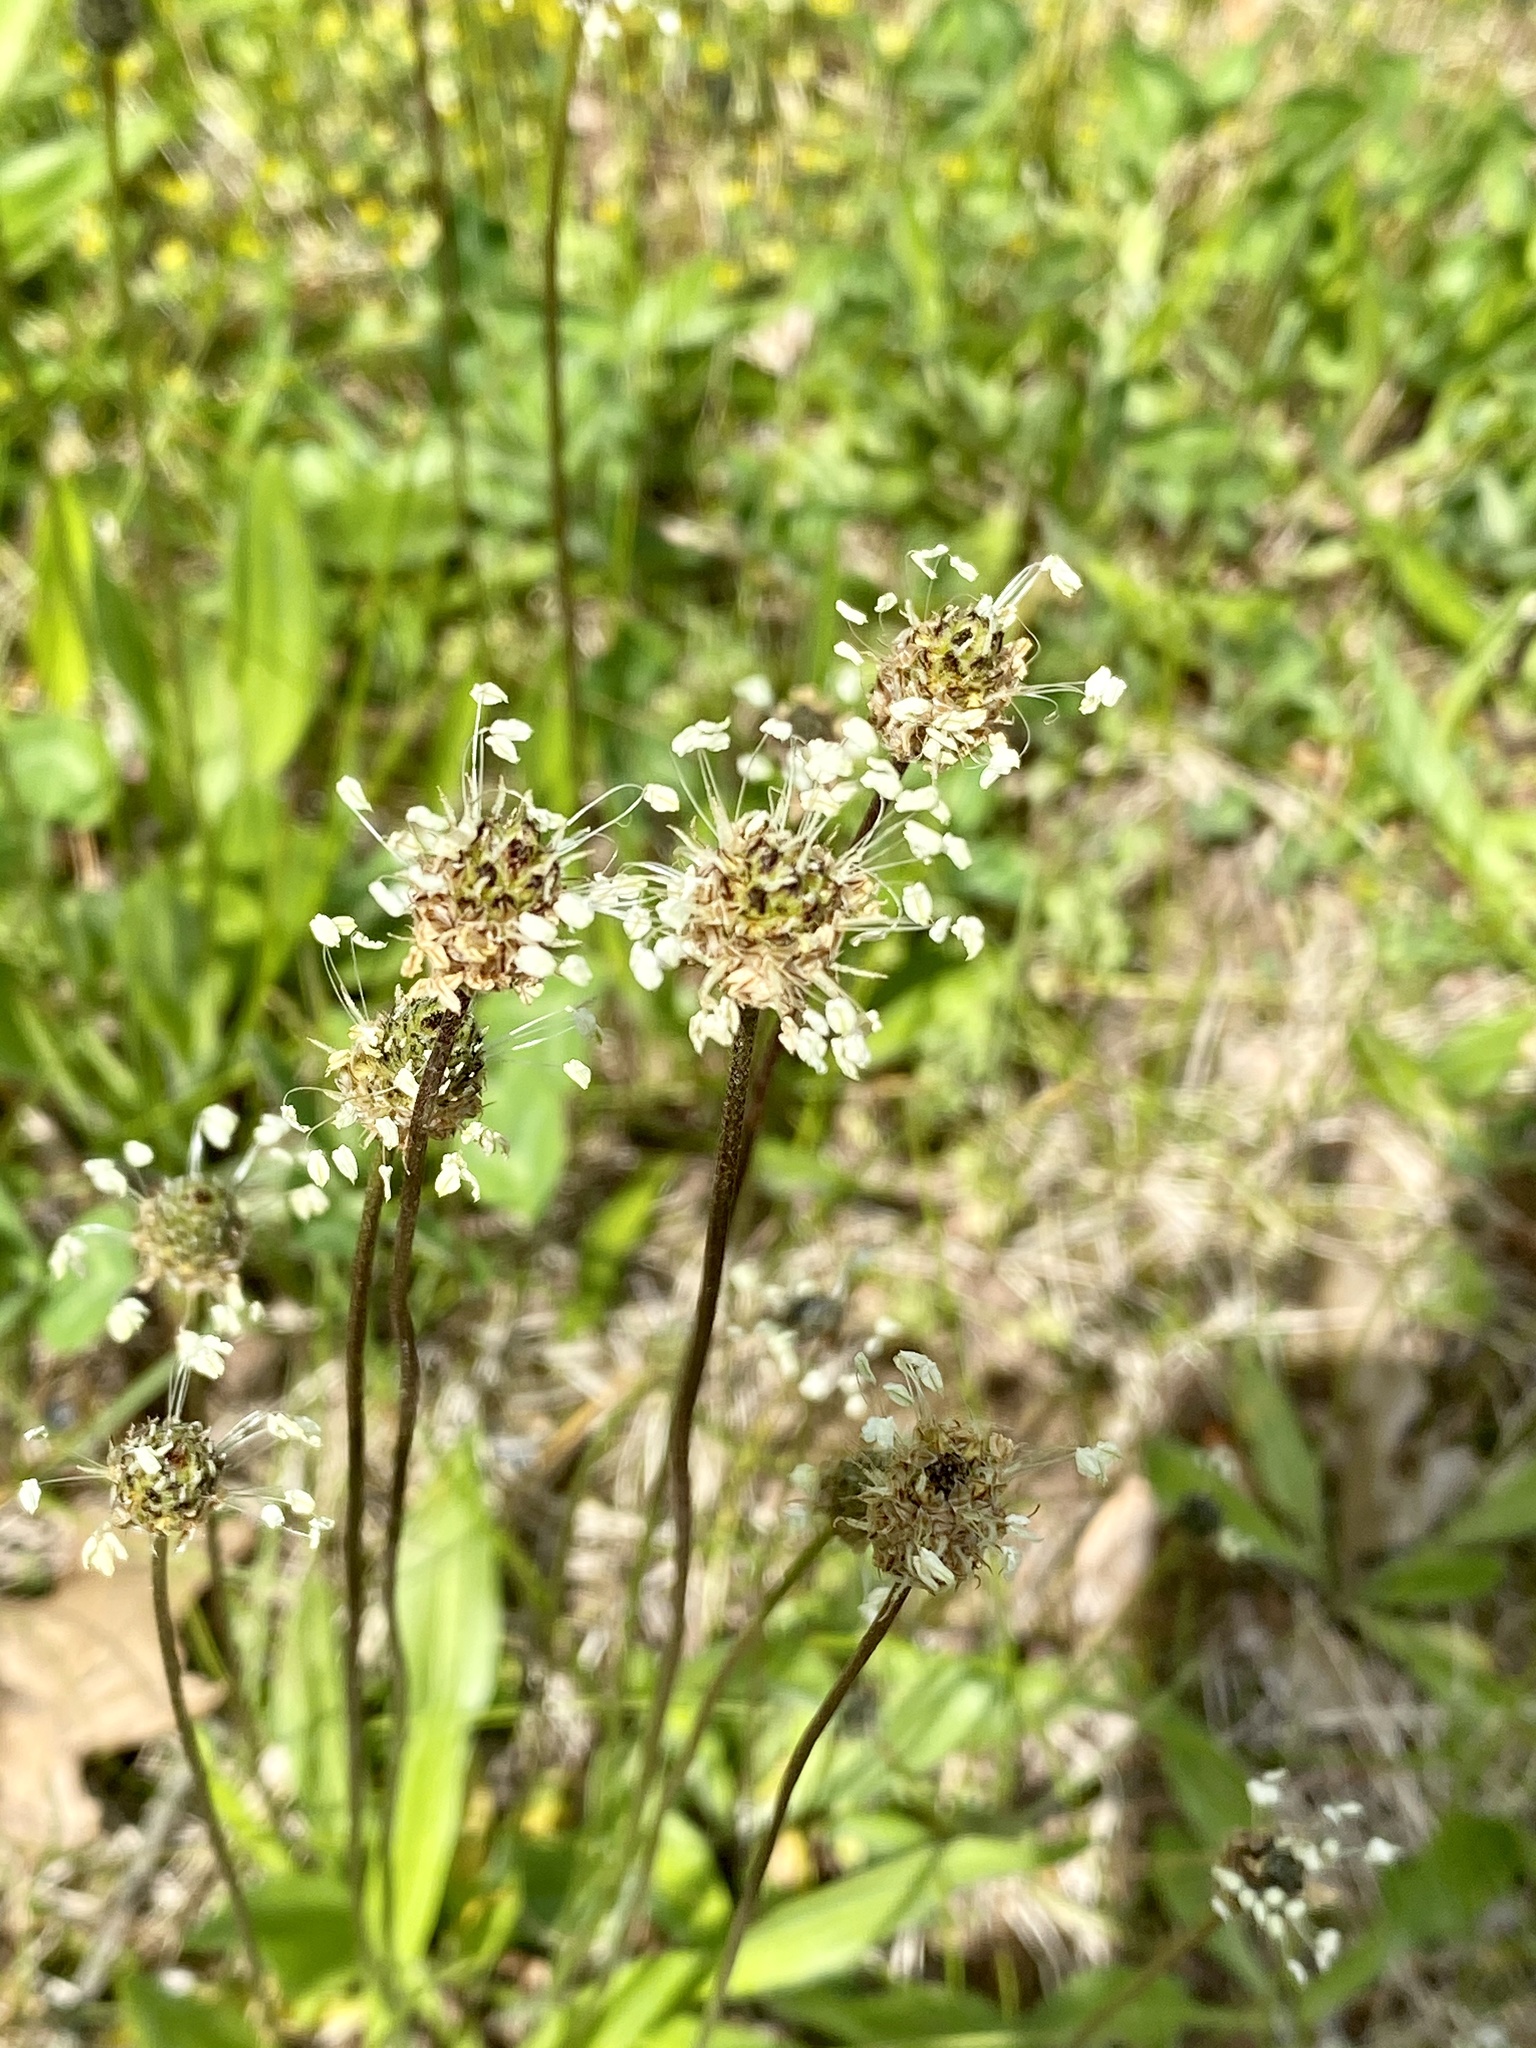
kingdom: Plantae
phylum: Tracheophyta
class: Magnoliopsida
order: Lamiales
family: Plantaginaceae
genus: Plantago
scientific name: Plantago lanceolata
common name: Ribwort plantain
